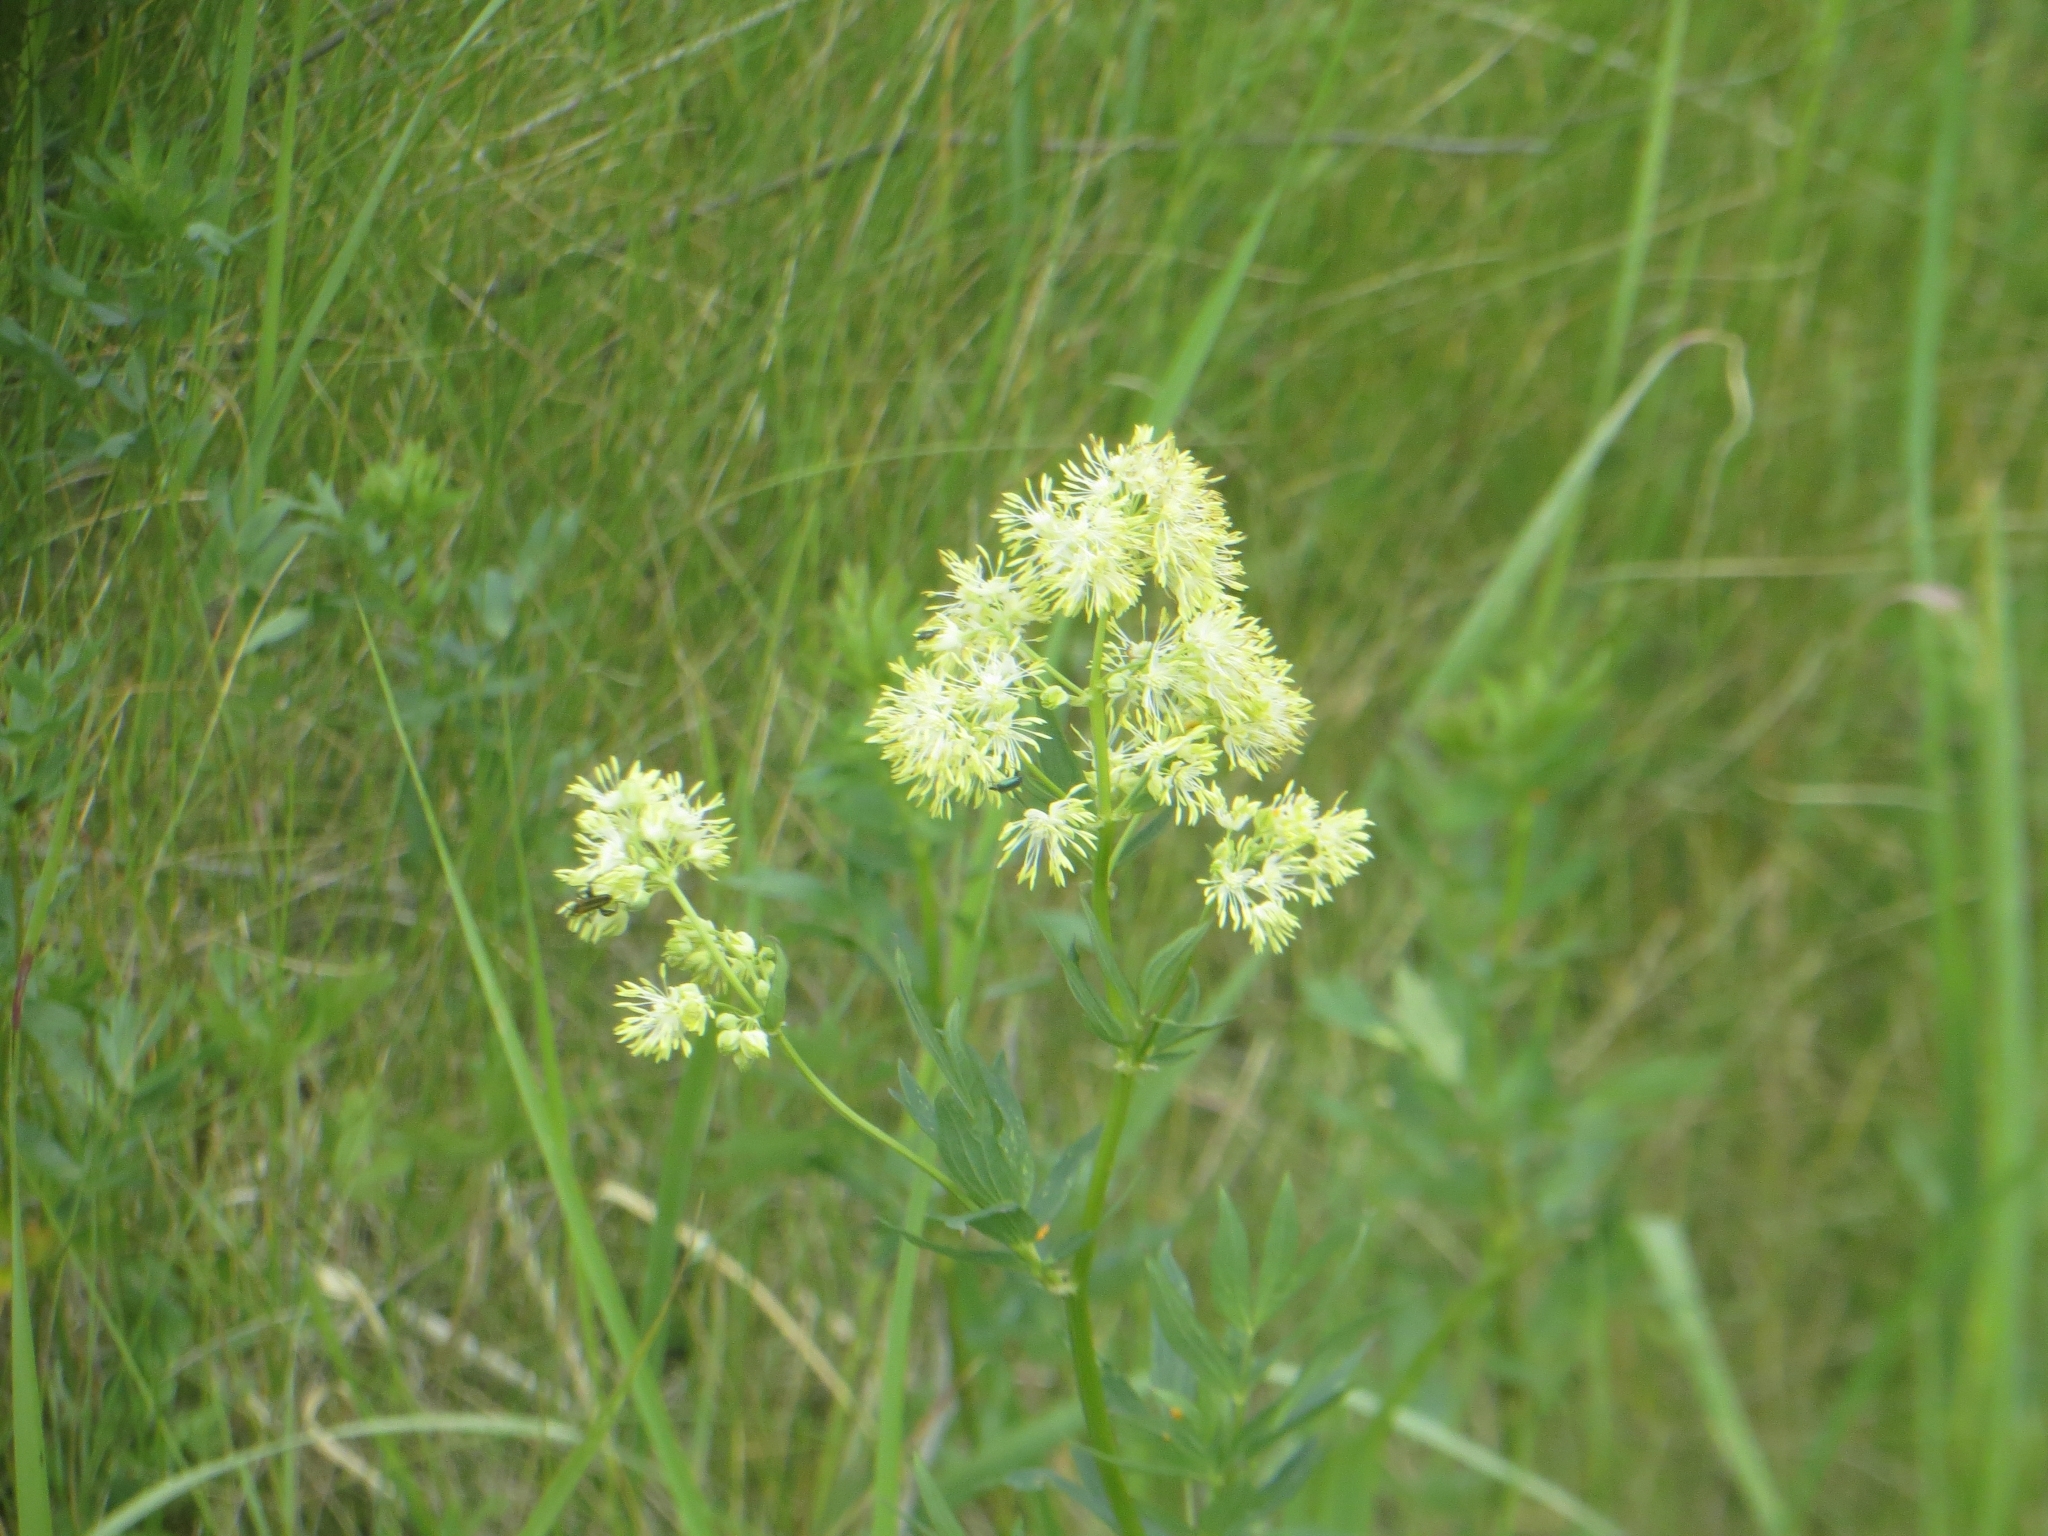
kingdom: Plantae
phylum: Tracheophyta
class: Magnoliopsida
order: Ranunculales
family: Ranunculaceae
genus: Thalictrum
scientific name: Thalictrum flavum
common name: Common meadow-rue
